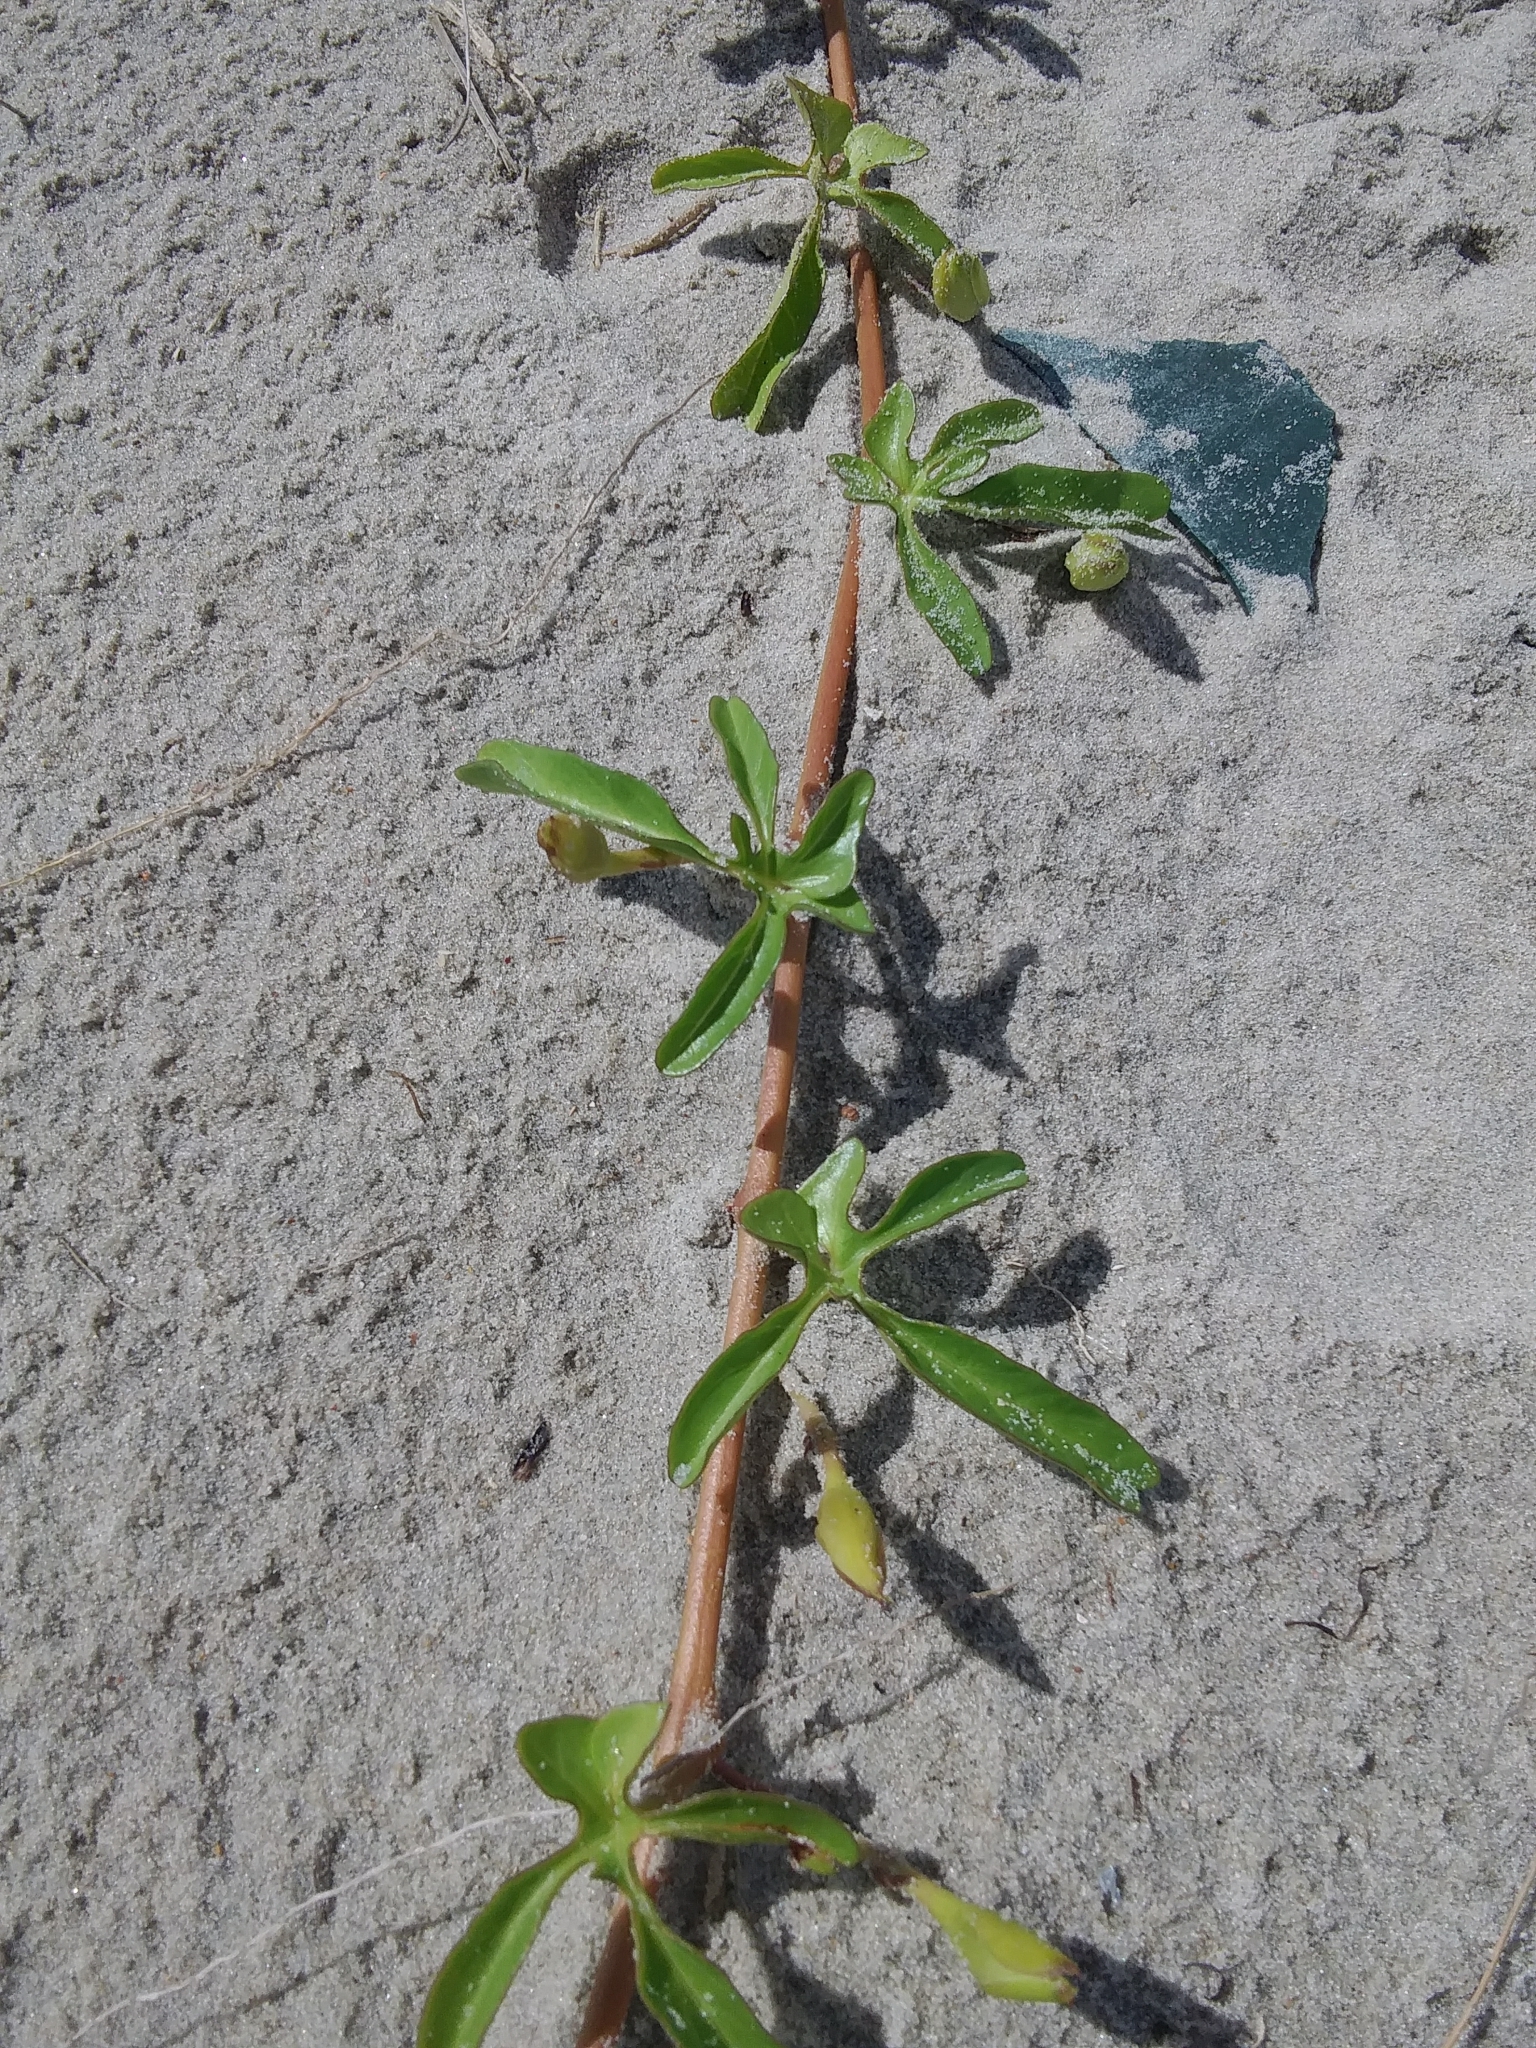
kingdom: Plantae
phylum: Tracheophyta
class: Magnoliopsida
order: Solanales
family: Convolvulaceae
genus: Ipomoea
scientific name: Ipomoea imperati
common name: Fiddle-leaf morning-glory
